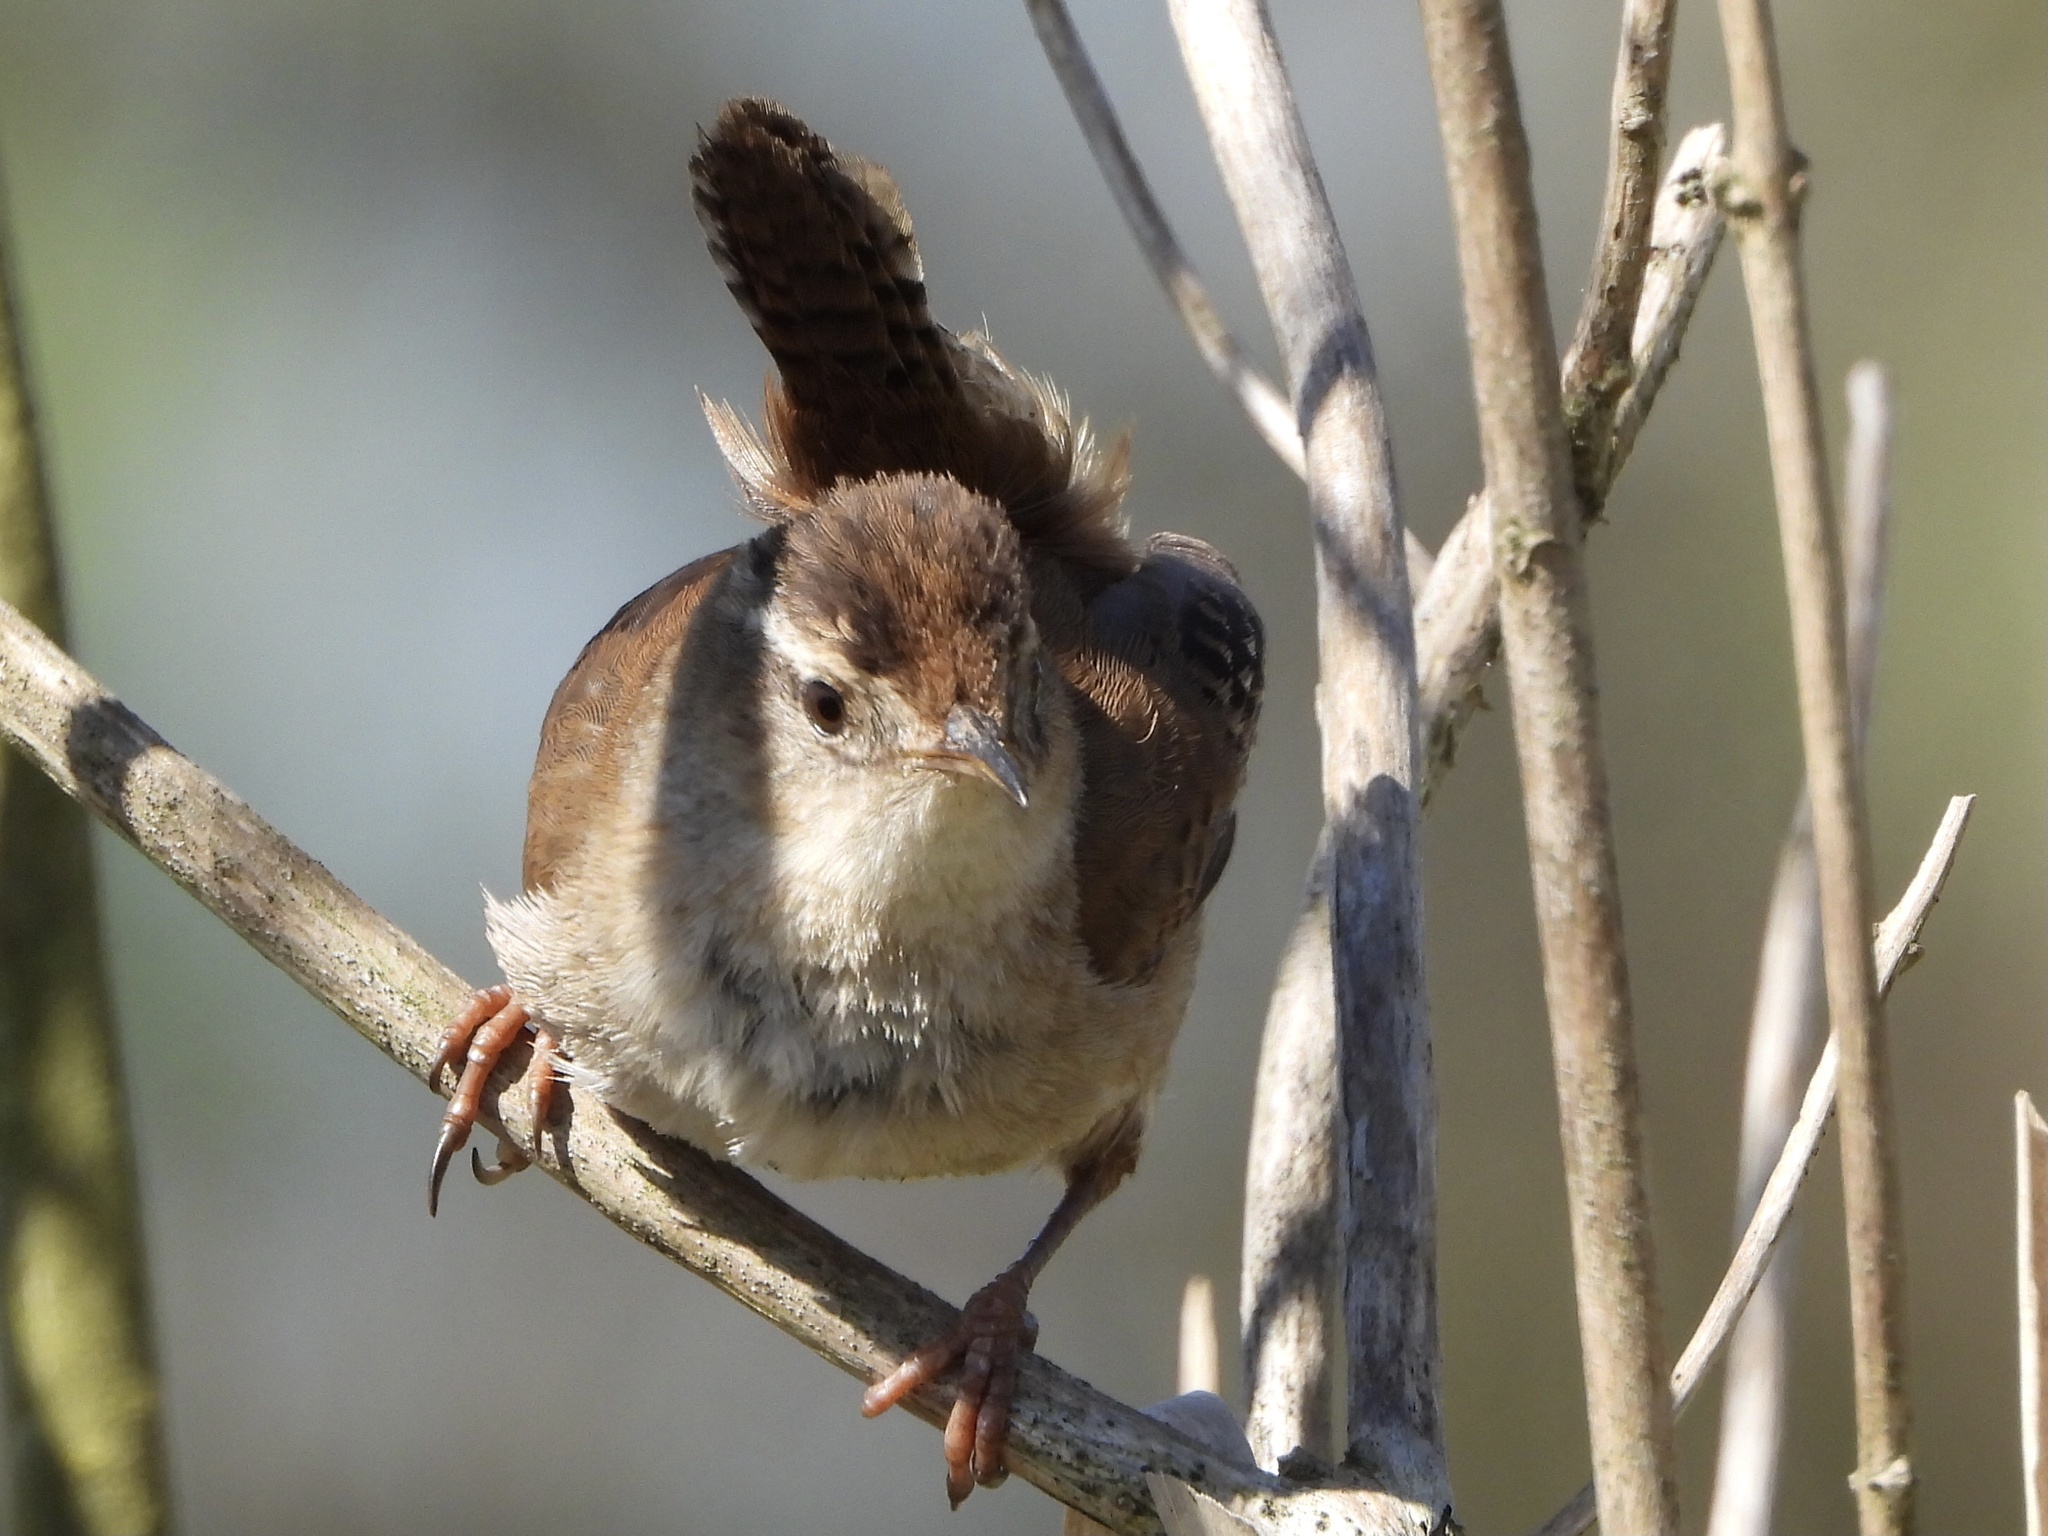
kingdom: Animalia
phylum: Chordata
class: Aves
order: Passeriformes
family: Troglodytidae
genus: Cistothorus
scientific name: Cistothorus palustris
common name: Marsh wren
